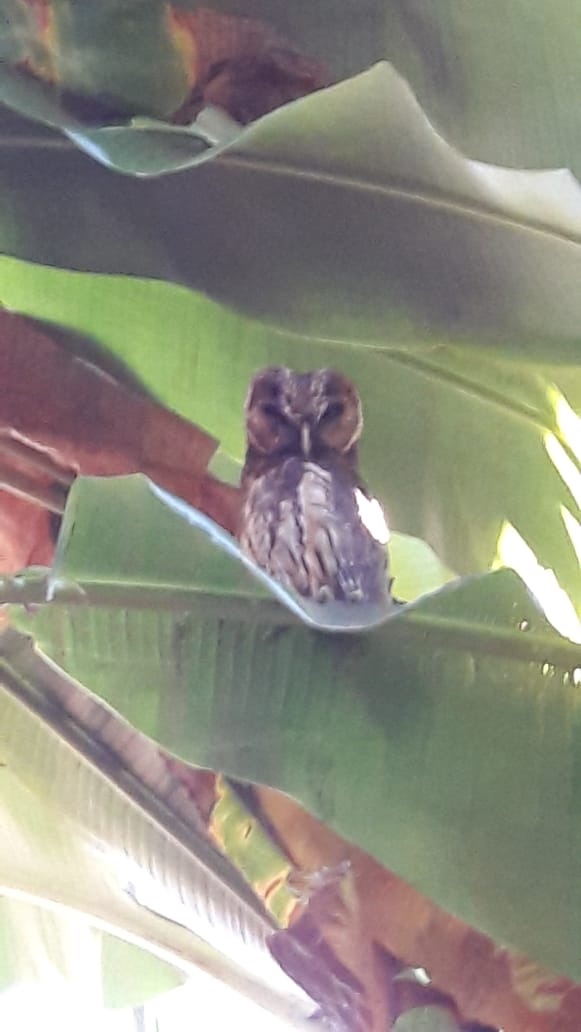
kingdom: Animalia
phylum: Chordata
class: Aves
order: Strigiformes
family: Strigidae
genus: Strix
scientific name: Strix virgata
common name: Mottled owl
